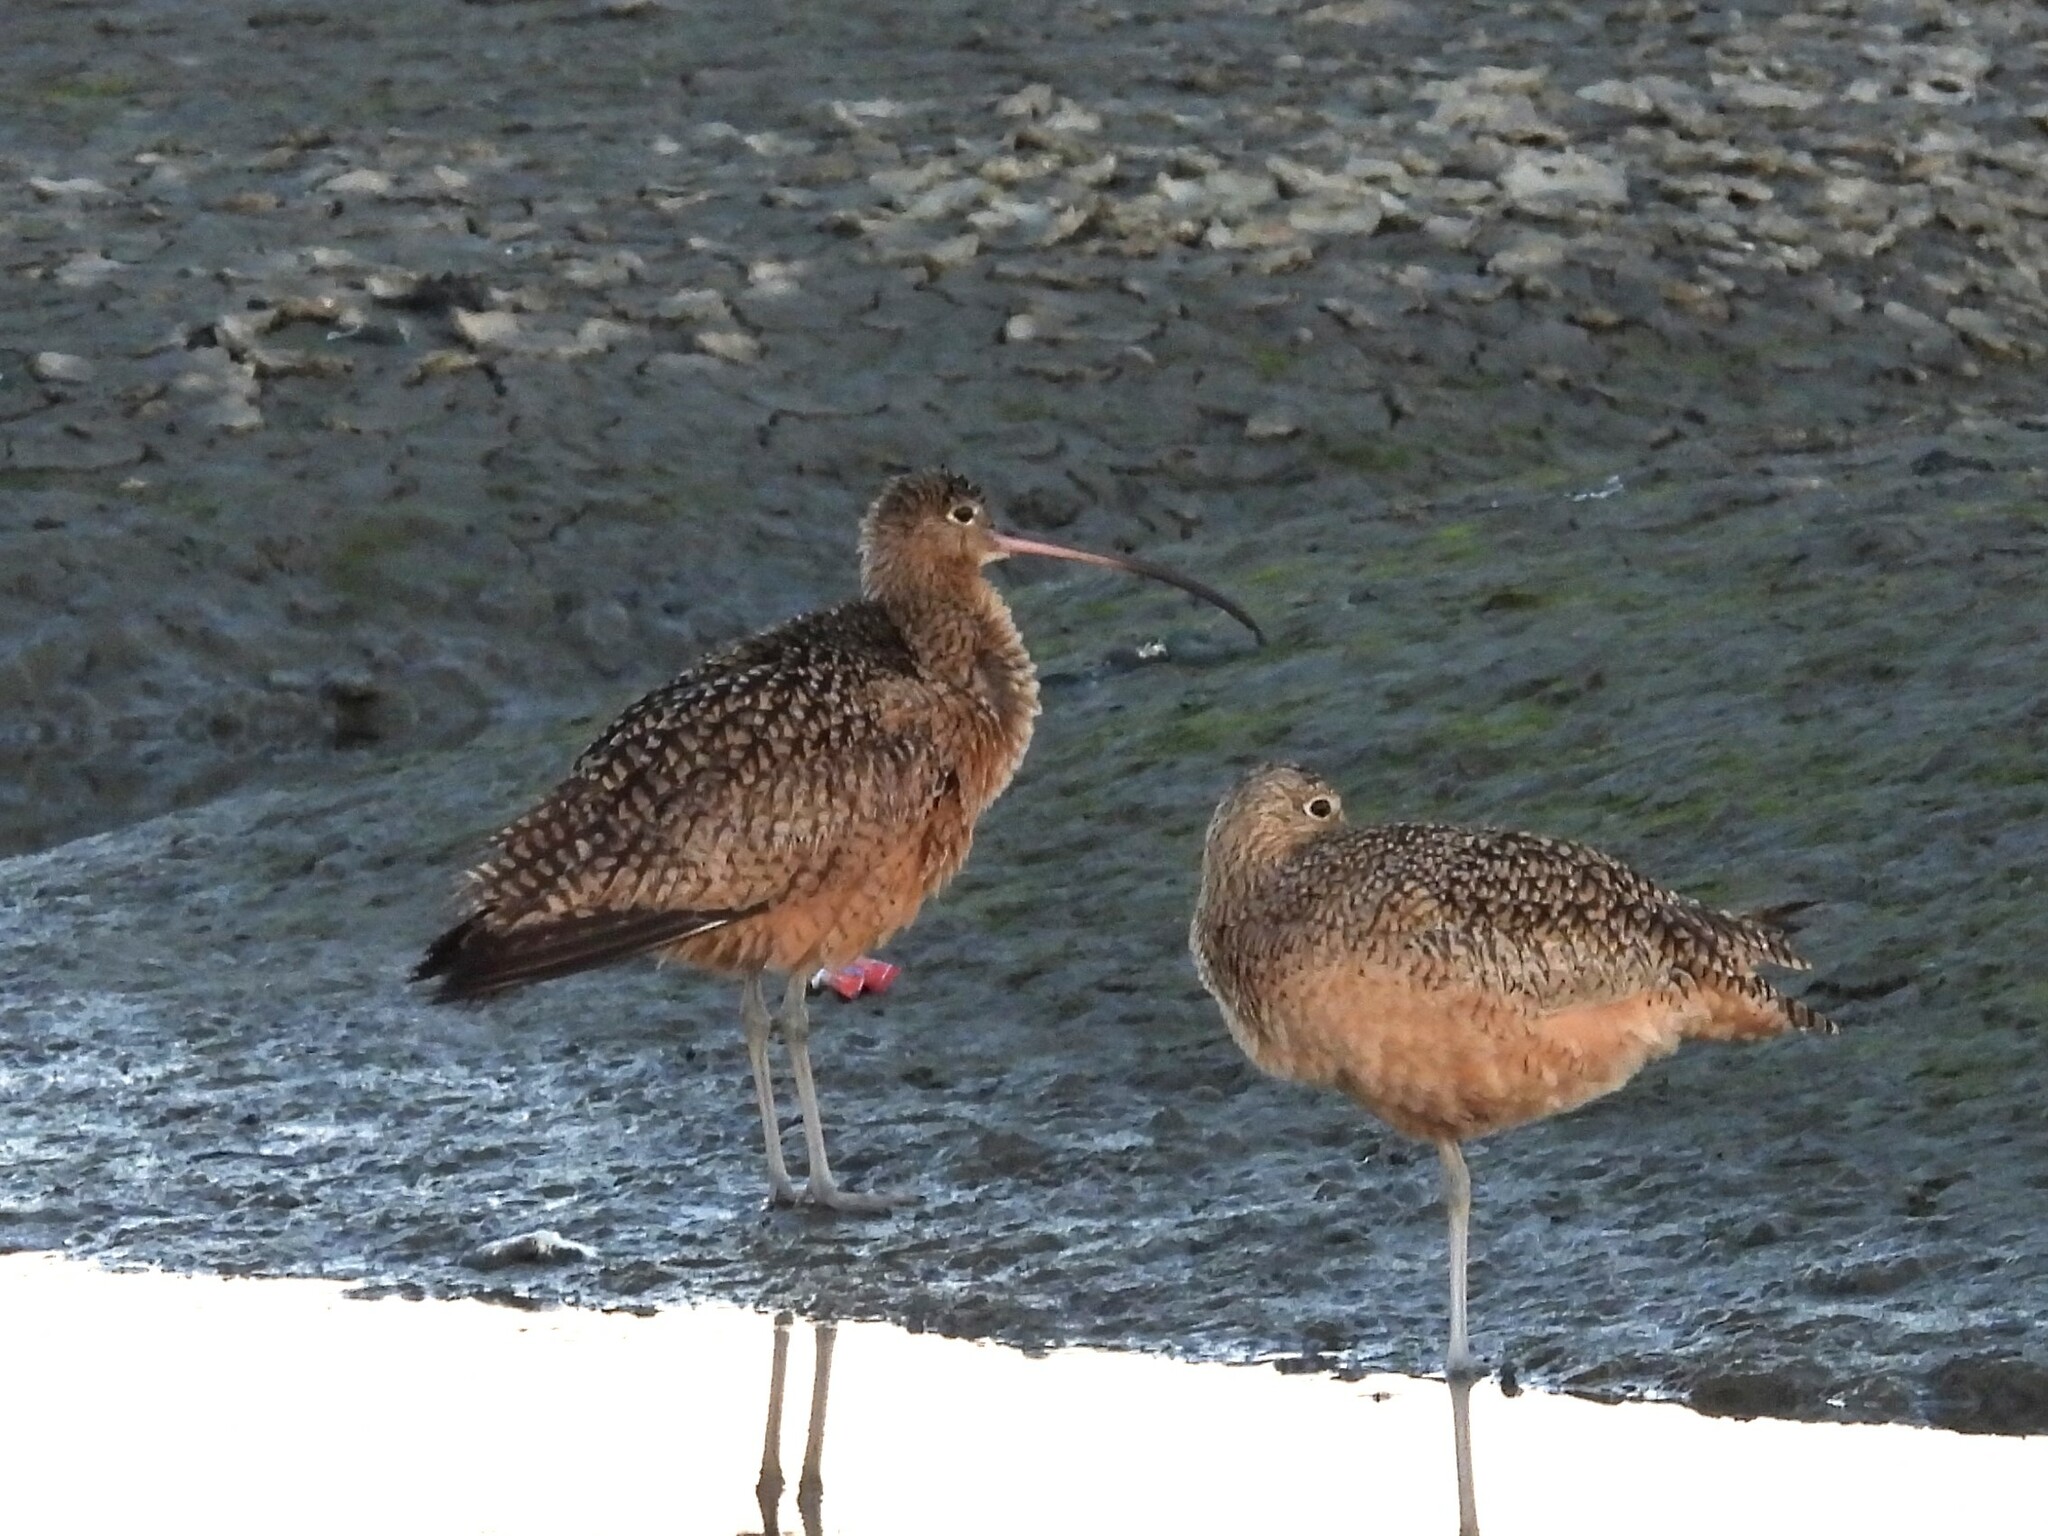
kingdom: Animalia
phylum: Chordata
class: Aves
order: Charadriiformes
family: Scolopacidae
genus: Numenius
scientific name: Numenius americanus
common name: Long-billed curlew
